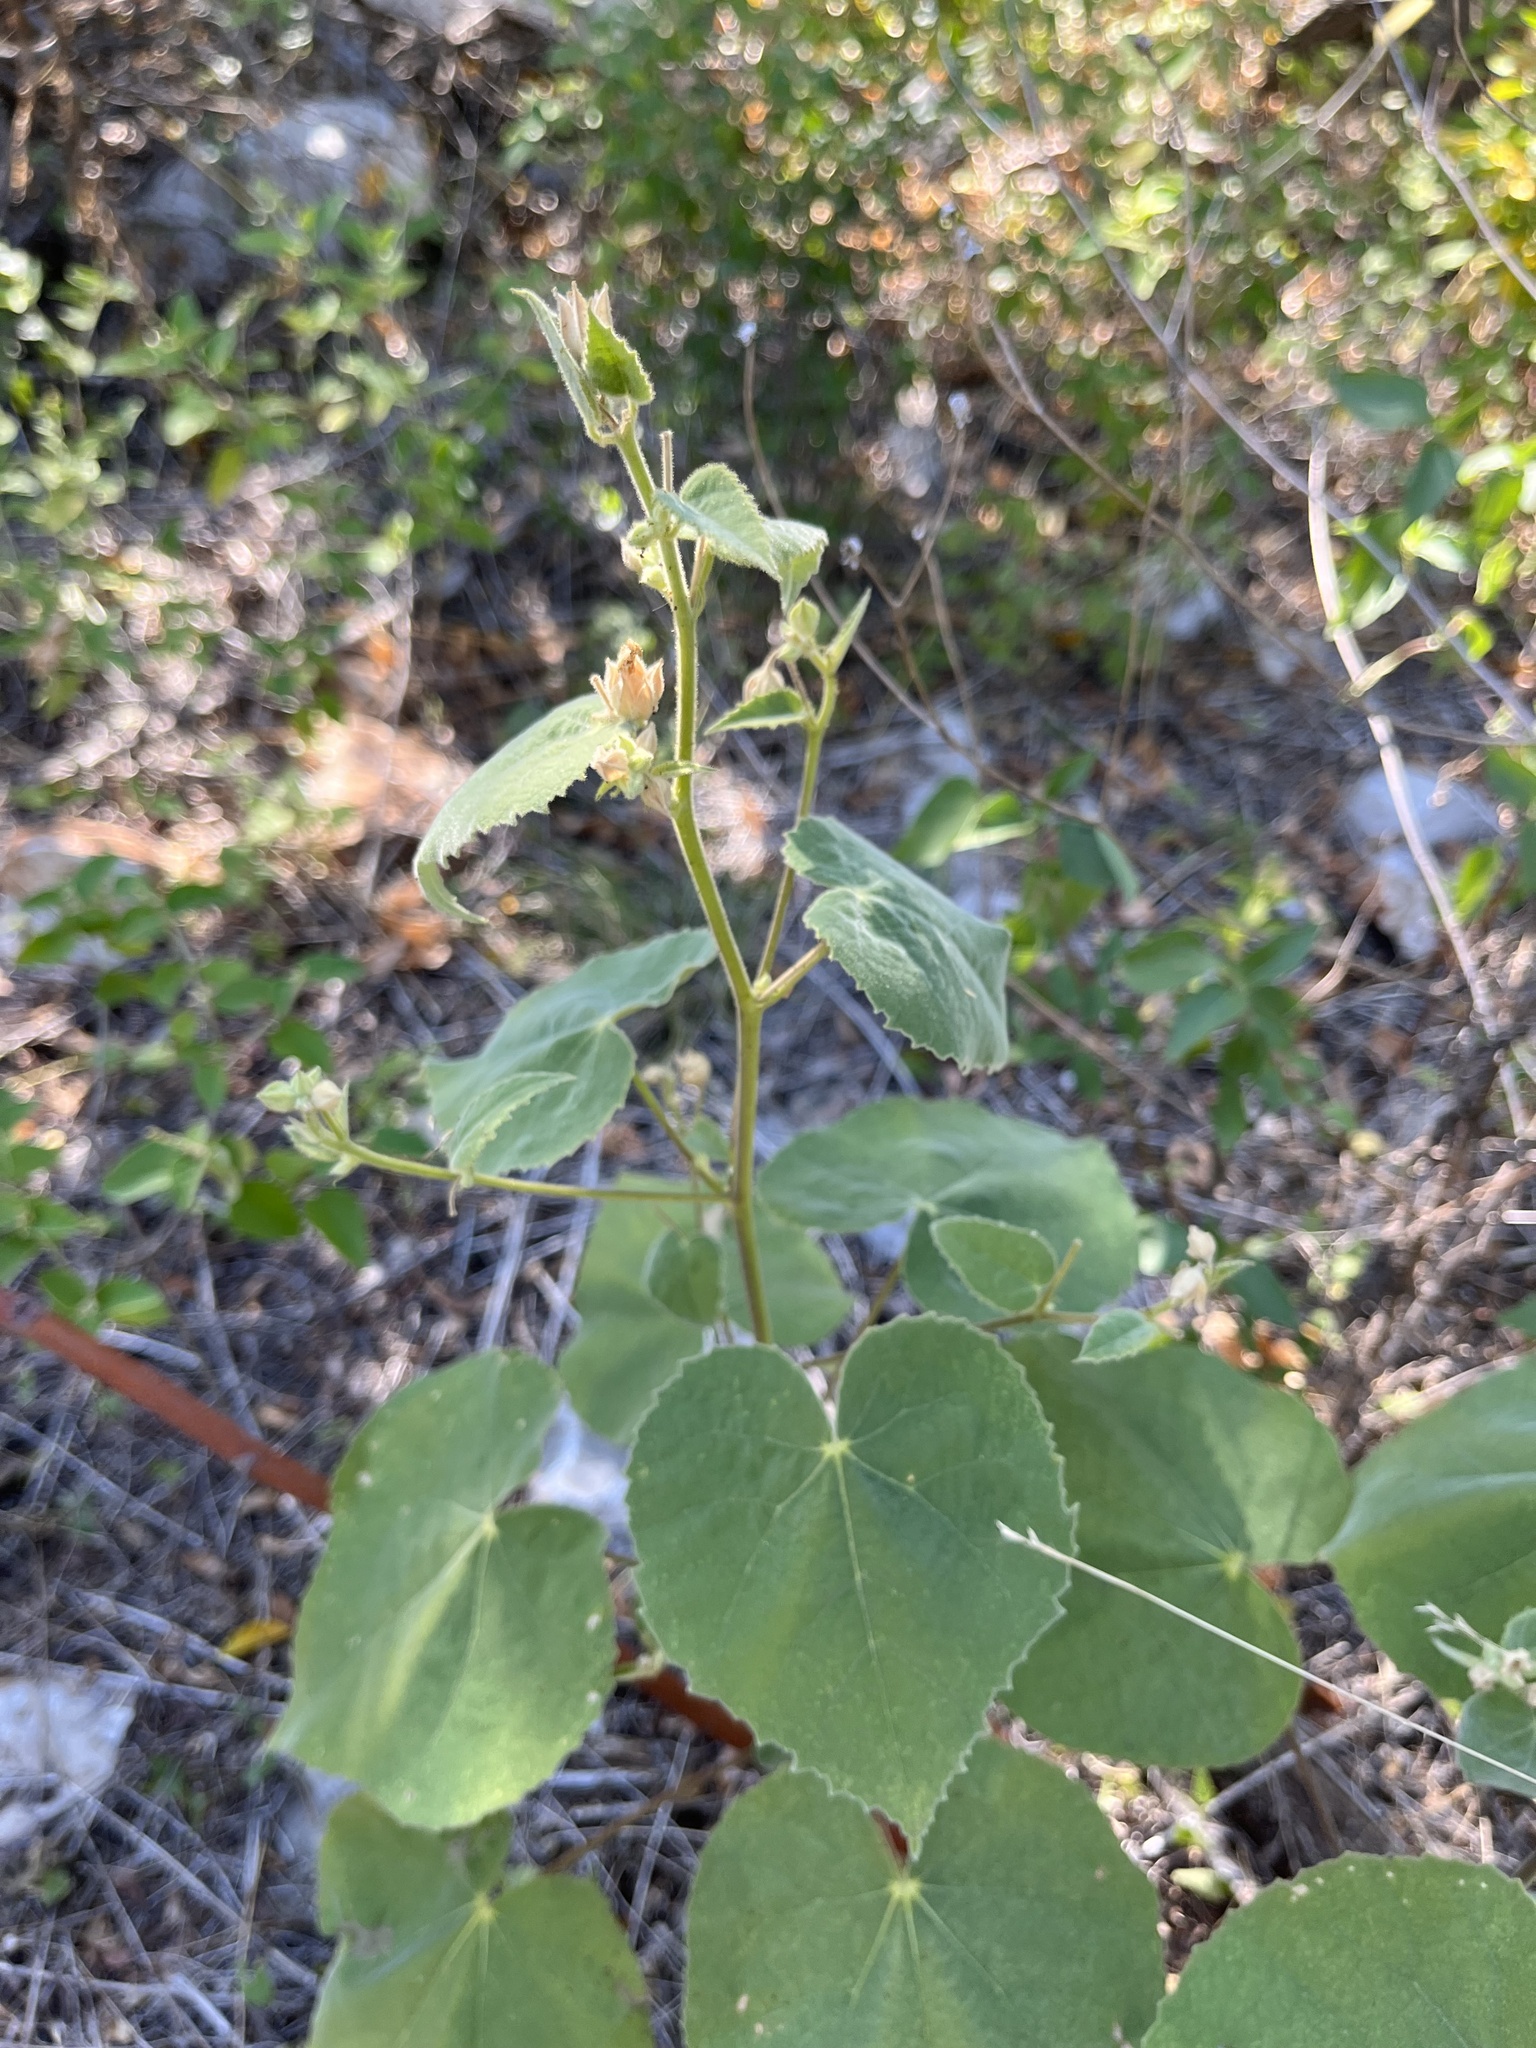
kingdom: Plantae
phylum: Tracheophyta
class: Magnoliopsida
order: Malvales
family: Malvaceae
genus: Allowissadula
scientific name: Allowissadula holosericea
